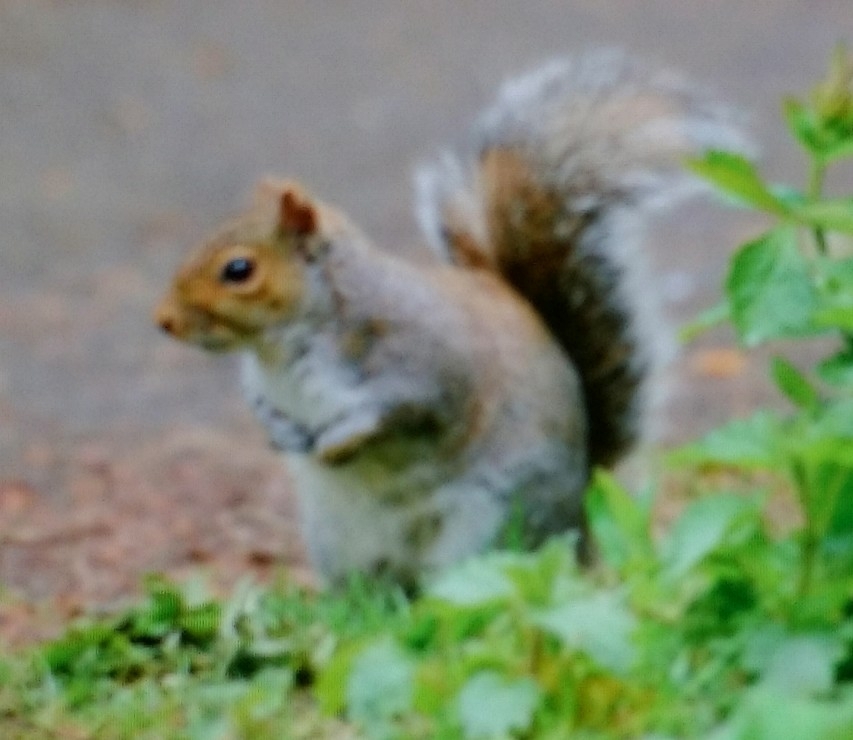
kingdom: Animalia
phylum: Chordata
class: Mammalia
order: Rodentia
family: Sciuridae
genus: Sciurus
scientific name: Sciurus carolinensis
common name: Eastern gray squirrel
